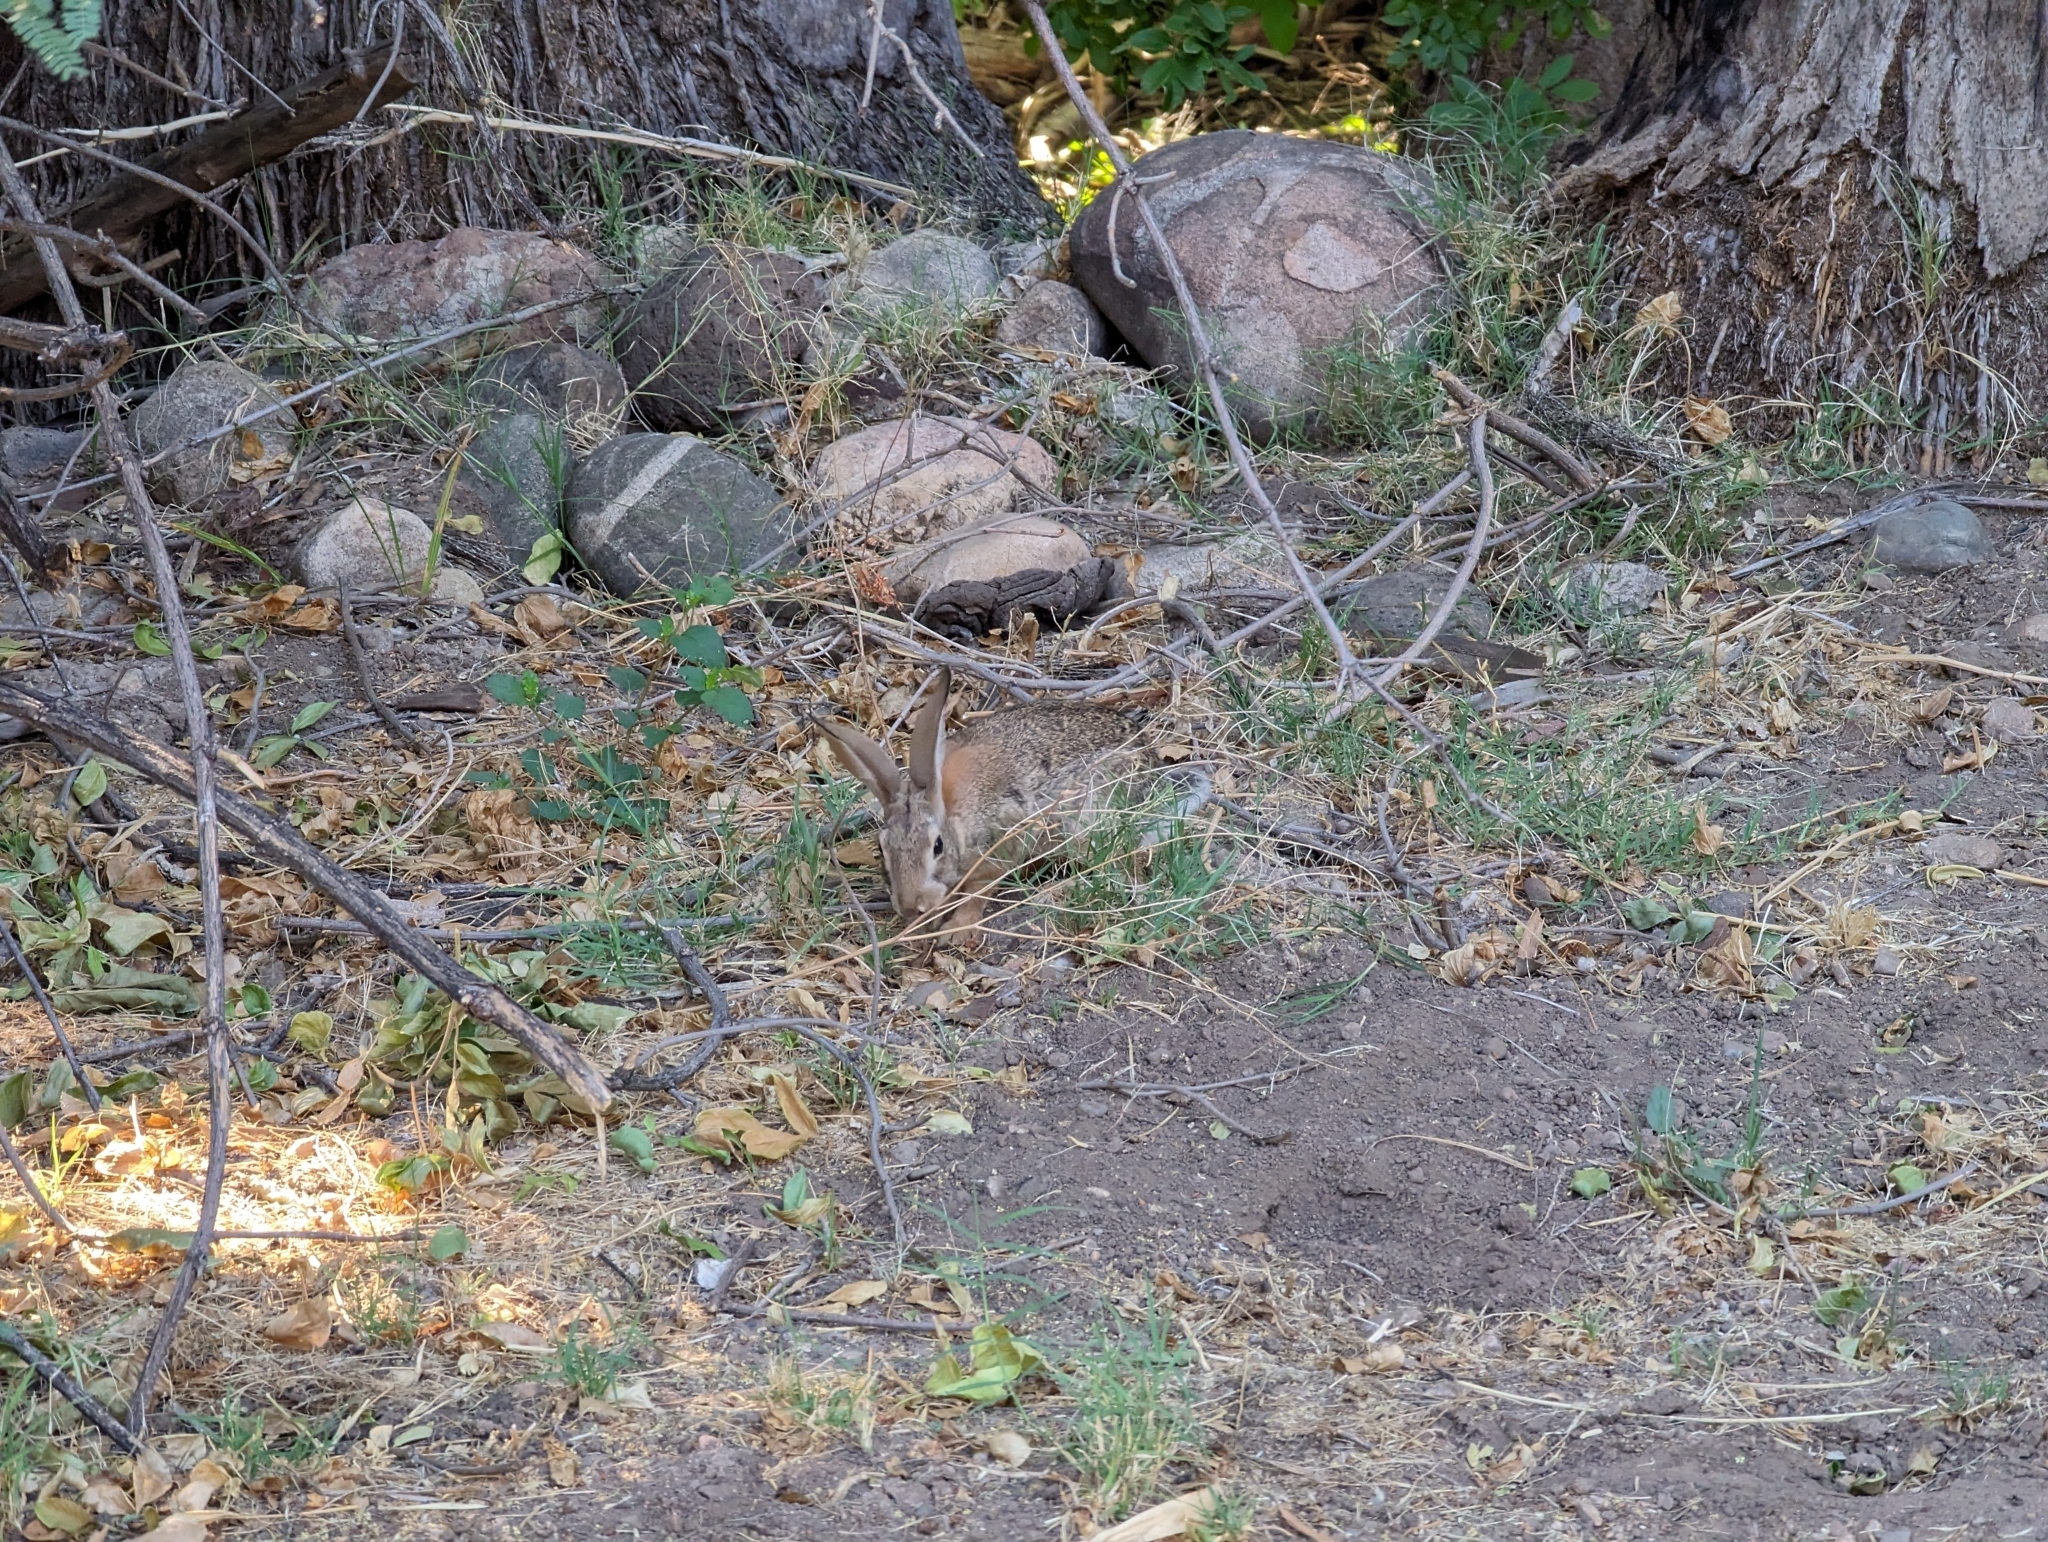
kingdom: Animalia
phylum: Chordata
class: Mammalia
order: Lagomorpha
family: Leporidae
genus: Sylvilagus
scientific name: Sylvilagus audubonii
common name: Desert cottontail
